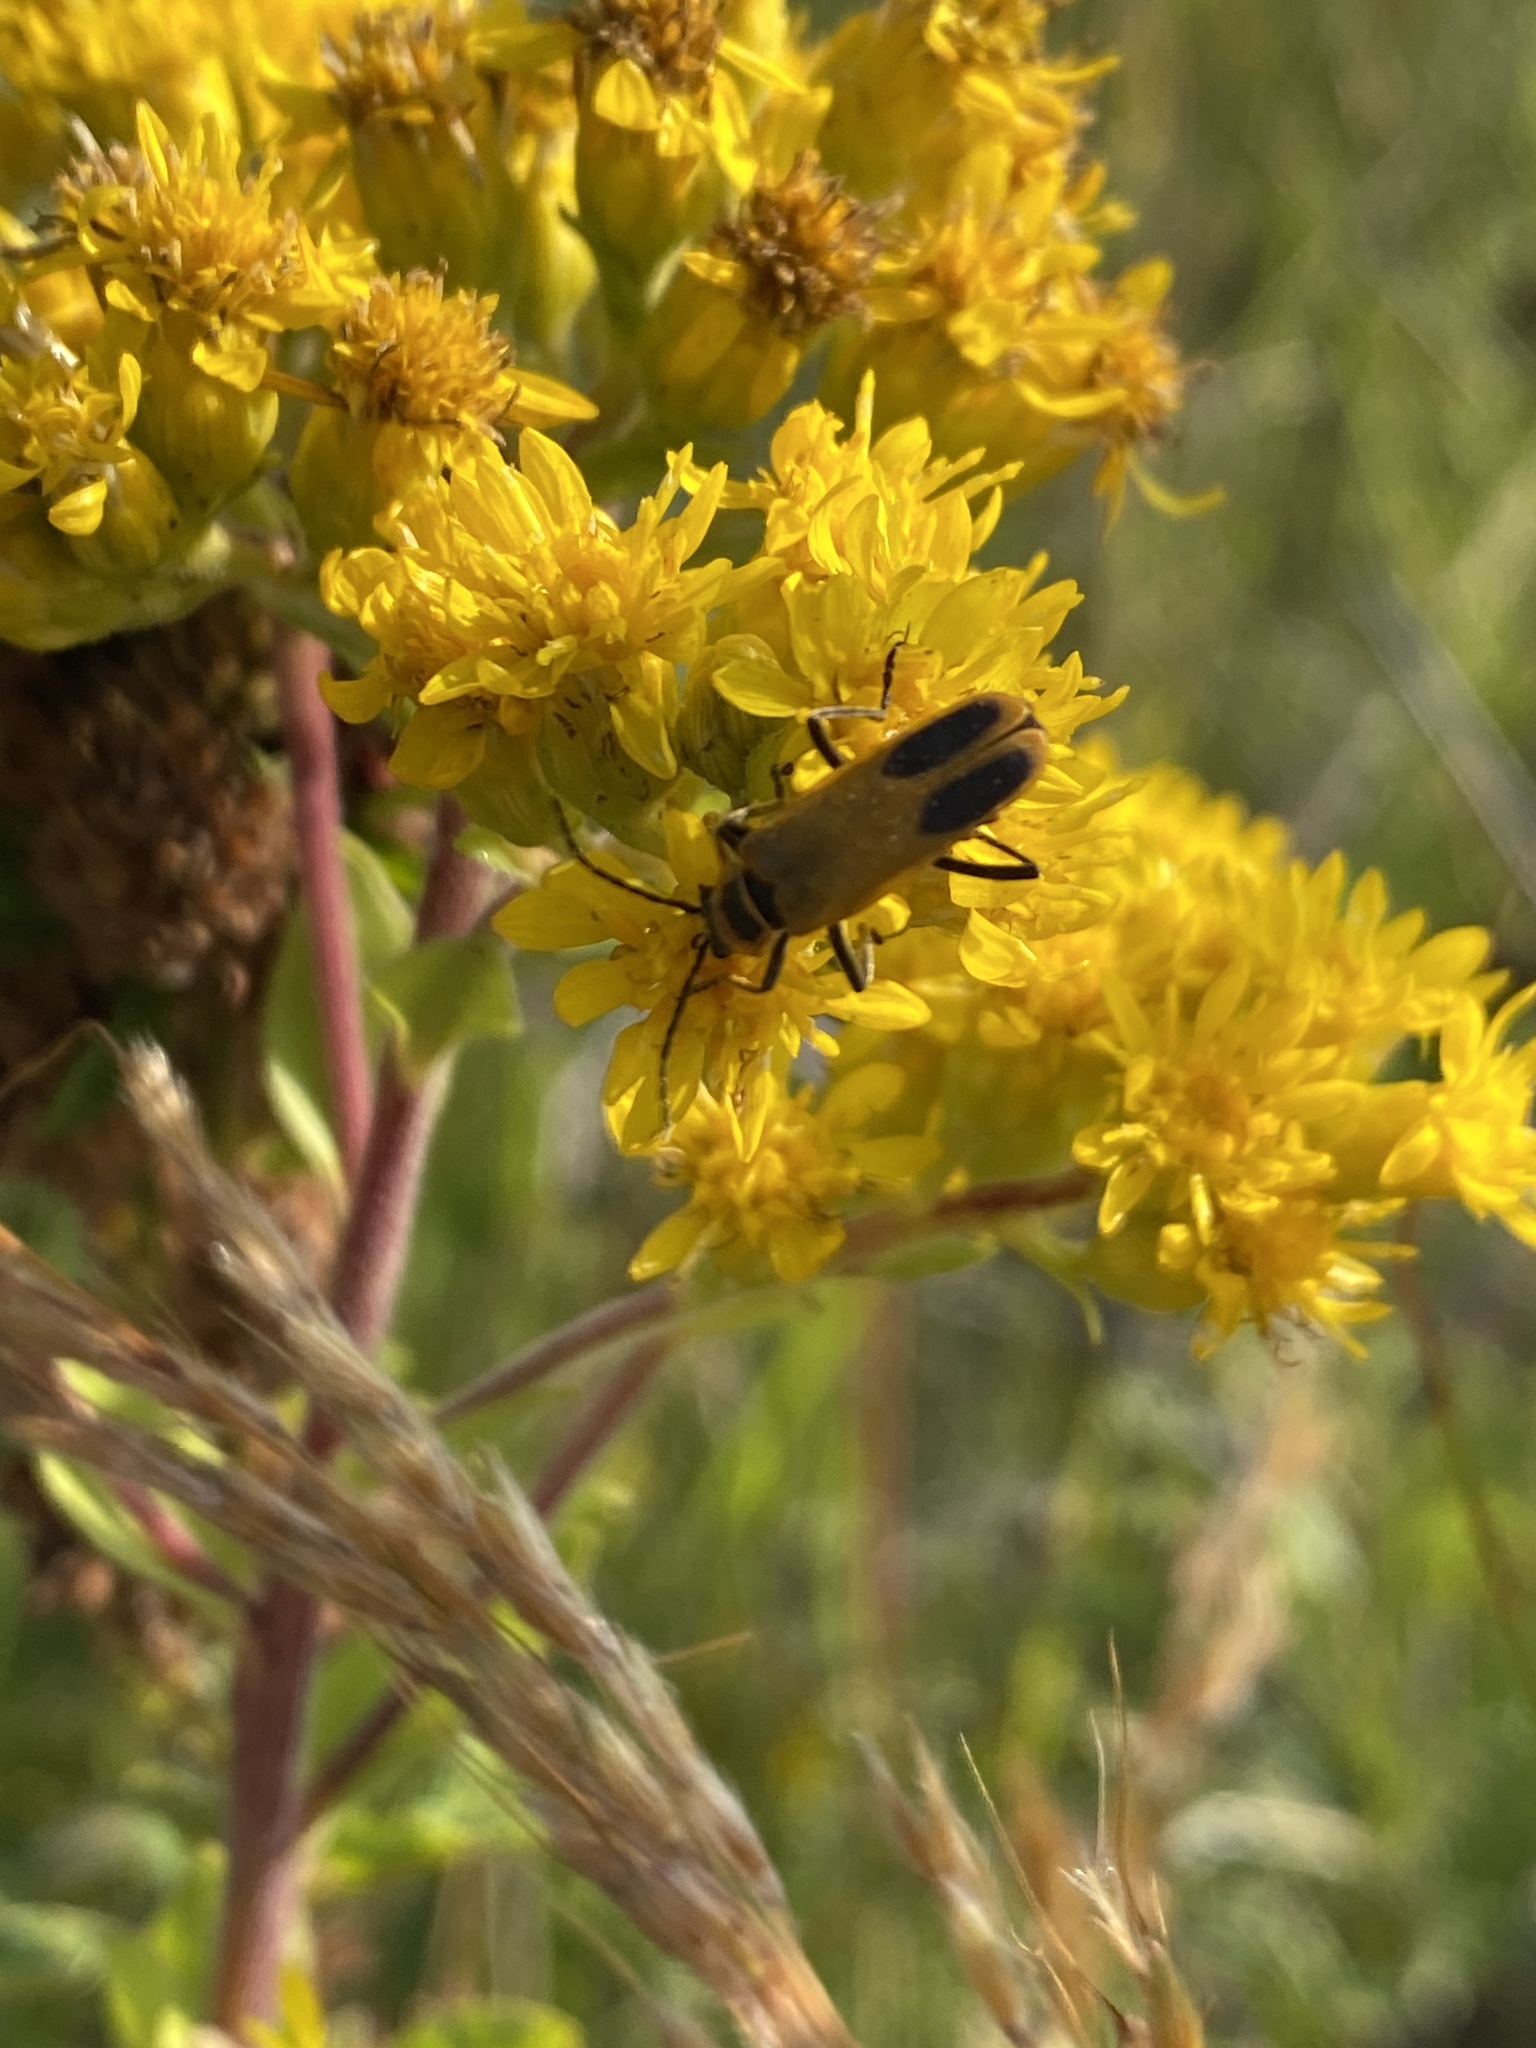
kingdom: Animalia
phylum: Arthropoda
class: Insecta
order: Coleoptera
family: Cantharidae
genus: Chauliognathus
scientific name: Chauliognathus pensylvanicus
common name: Goldenrod soldier beetle
